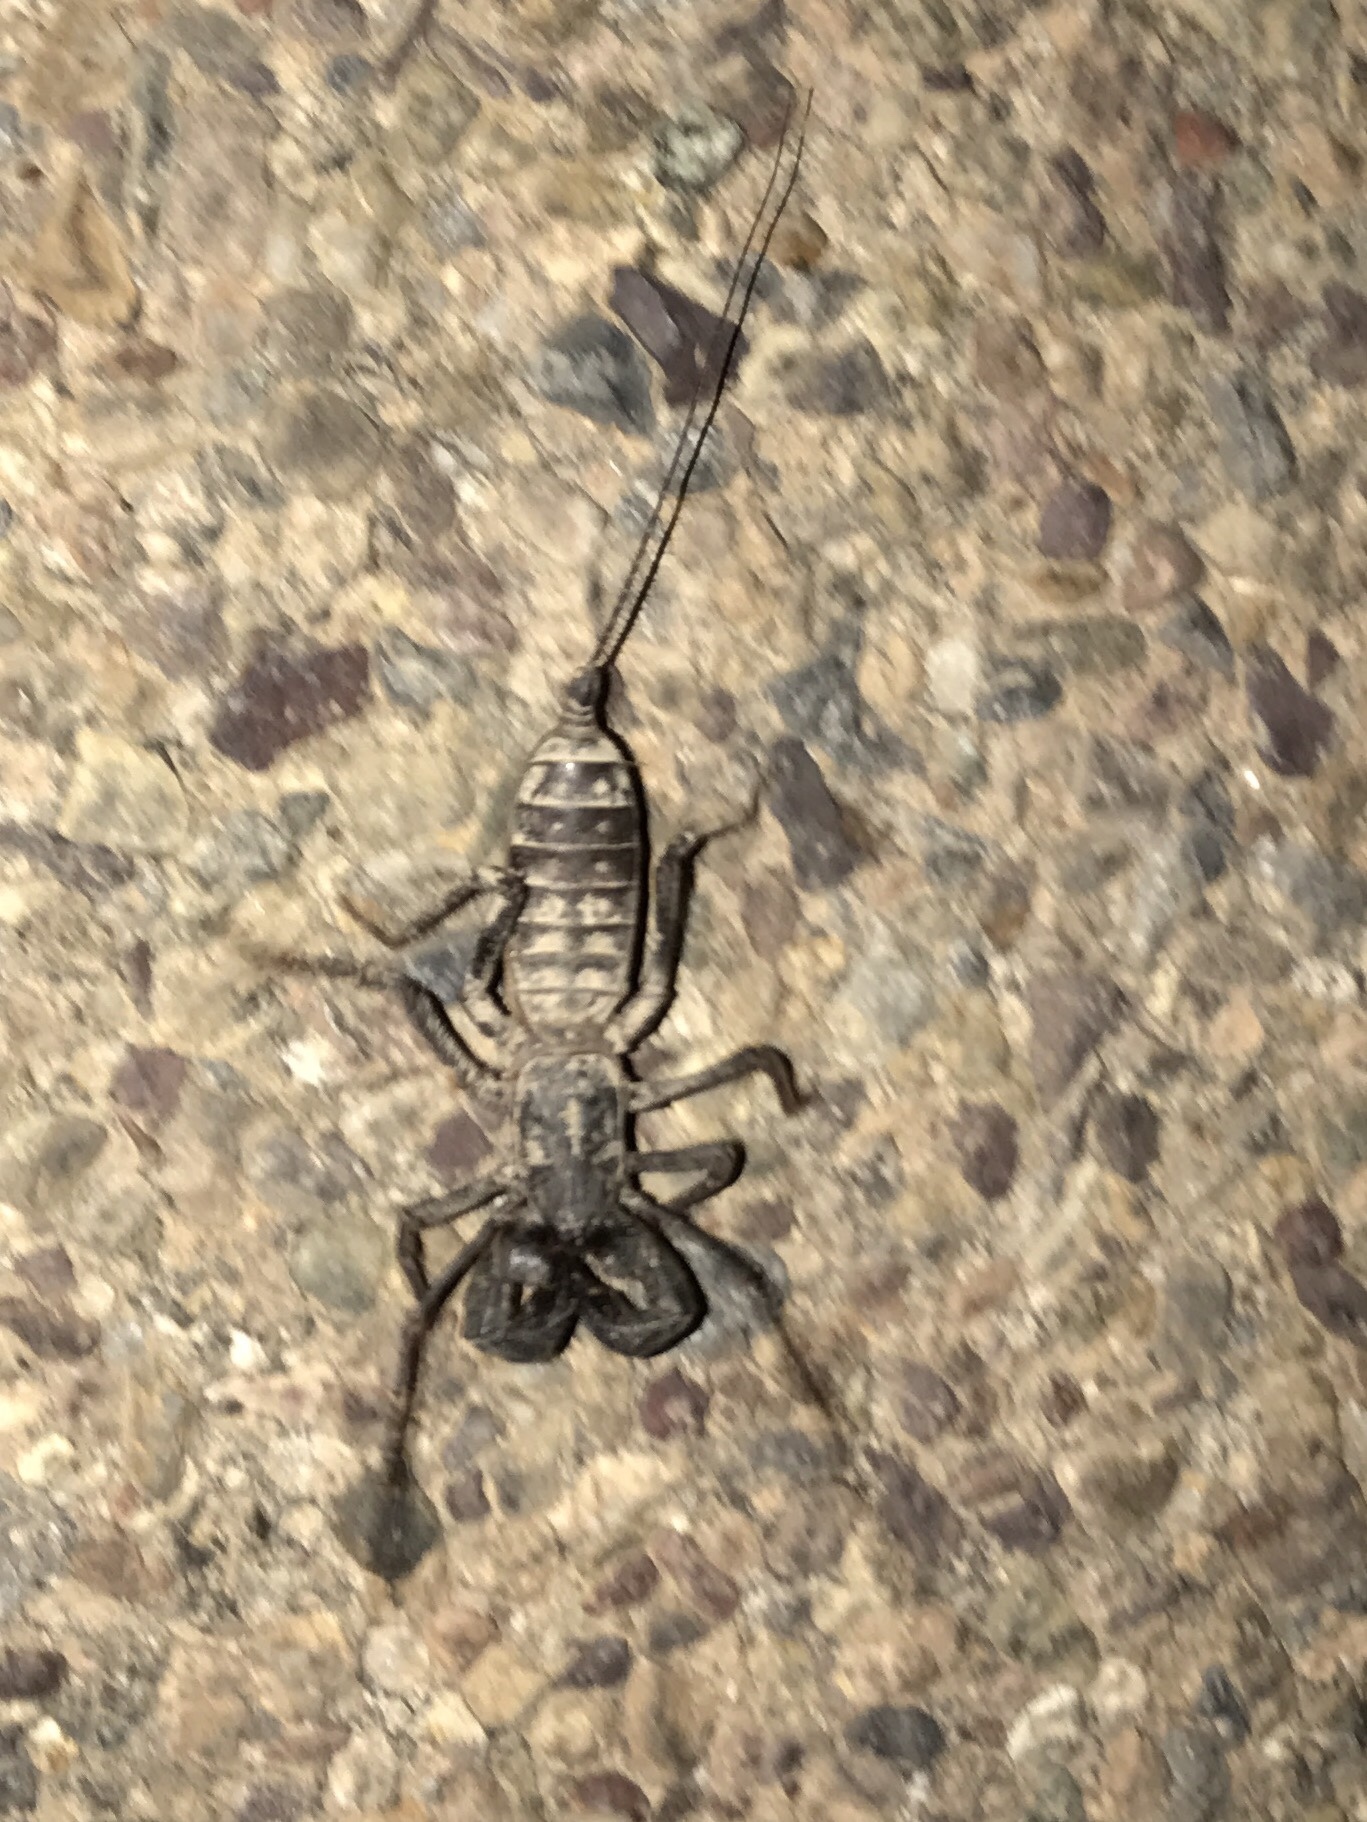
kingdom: Animalia
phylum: Arthropoda
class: Arachnida
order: Uropygi
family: Thelyphonidae
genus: Mastigoproctus
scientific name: Mastigoproctus tohono
